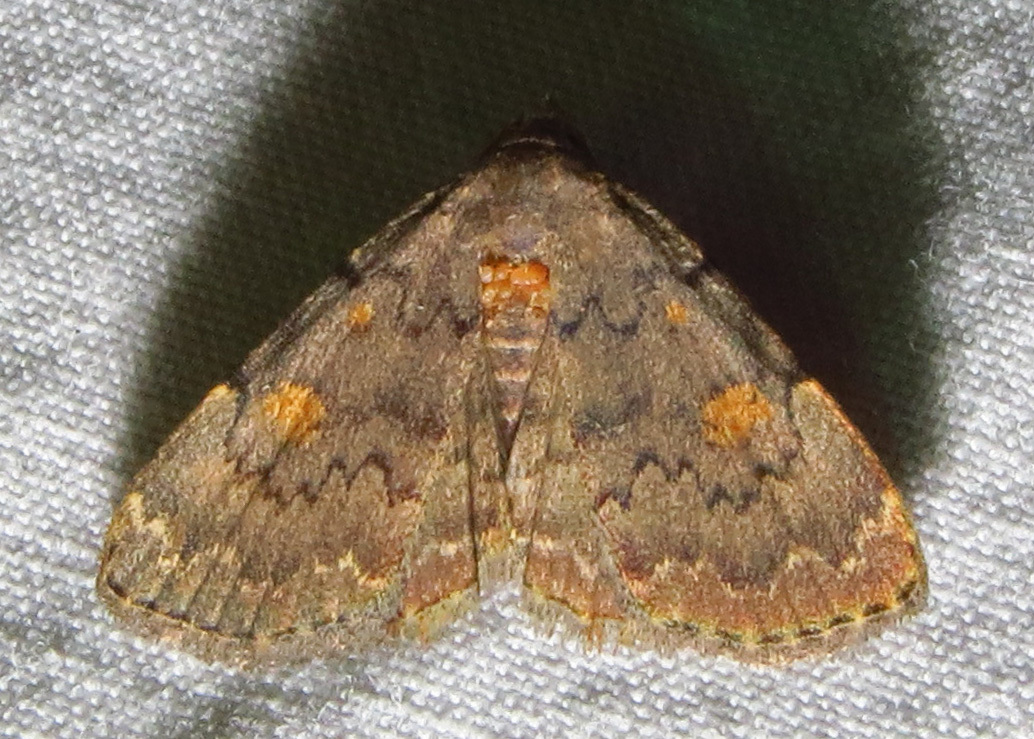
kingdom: Animalia
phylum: Arthropoda
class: Insecta
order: Lepidoptera
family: Erebidae
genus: Idia
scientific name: Idia aemula
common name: Common idia moth
